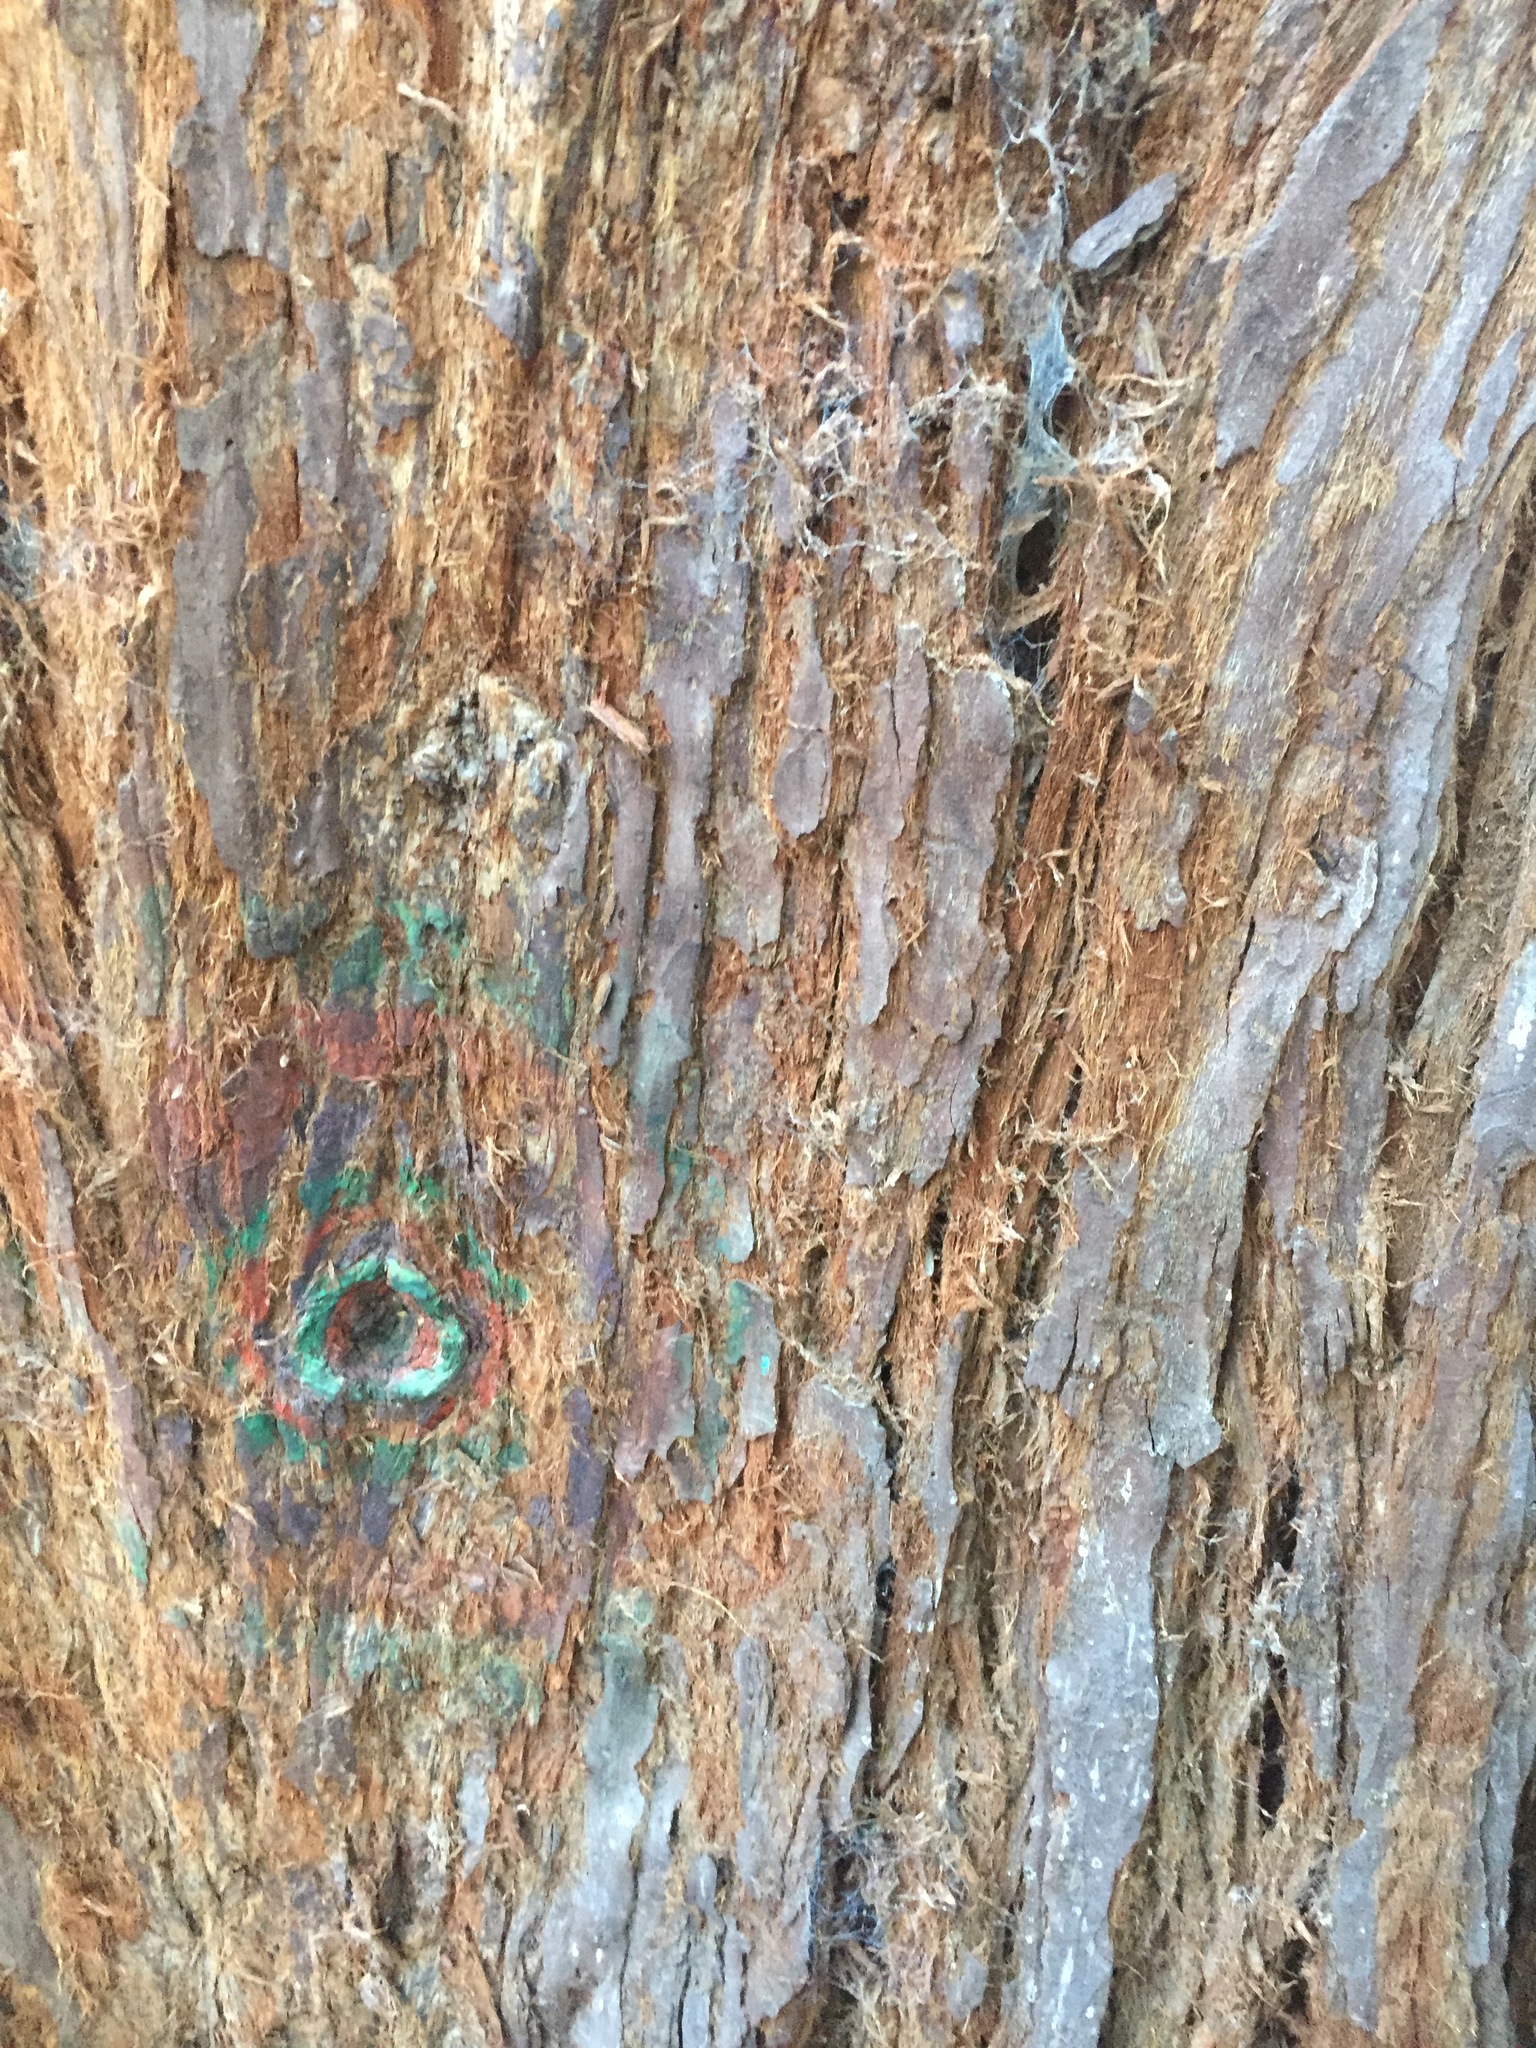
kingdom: Plantae
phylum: Tracheophyta
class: Pinopsida
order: Pinales
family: Cupressaceae
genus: Sequoia
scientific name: Sequoia sempervirens
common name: Coast redwood
